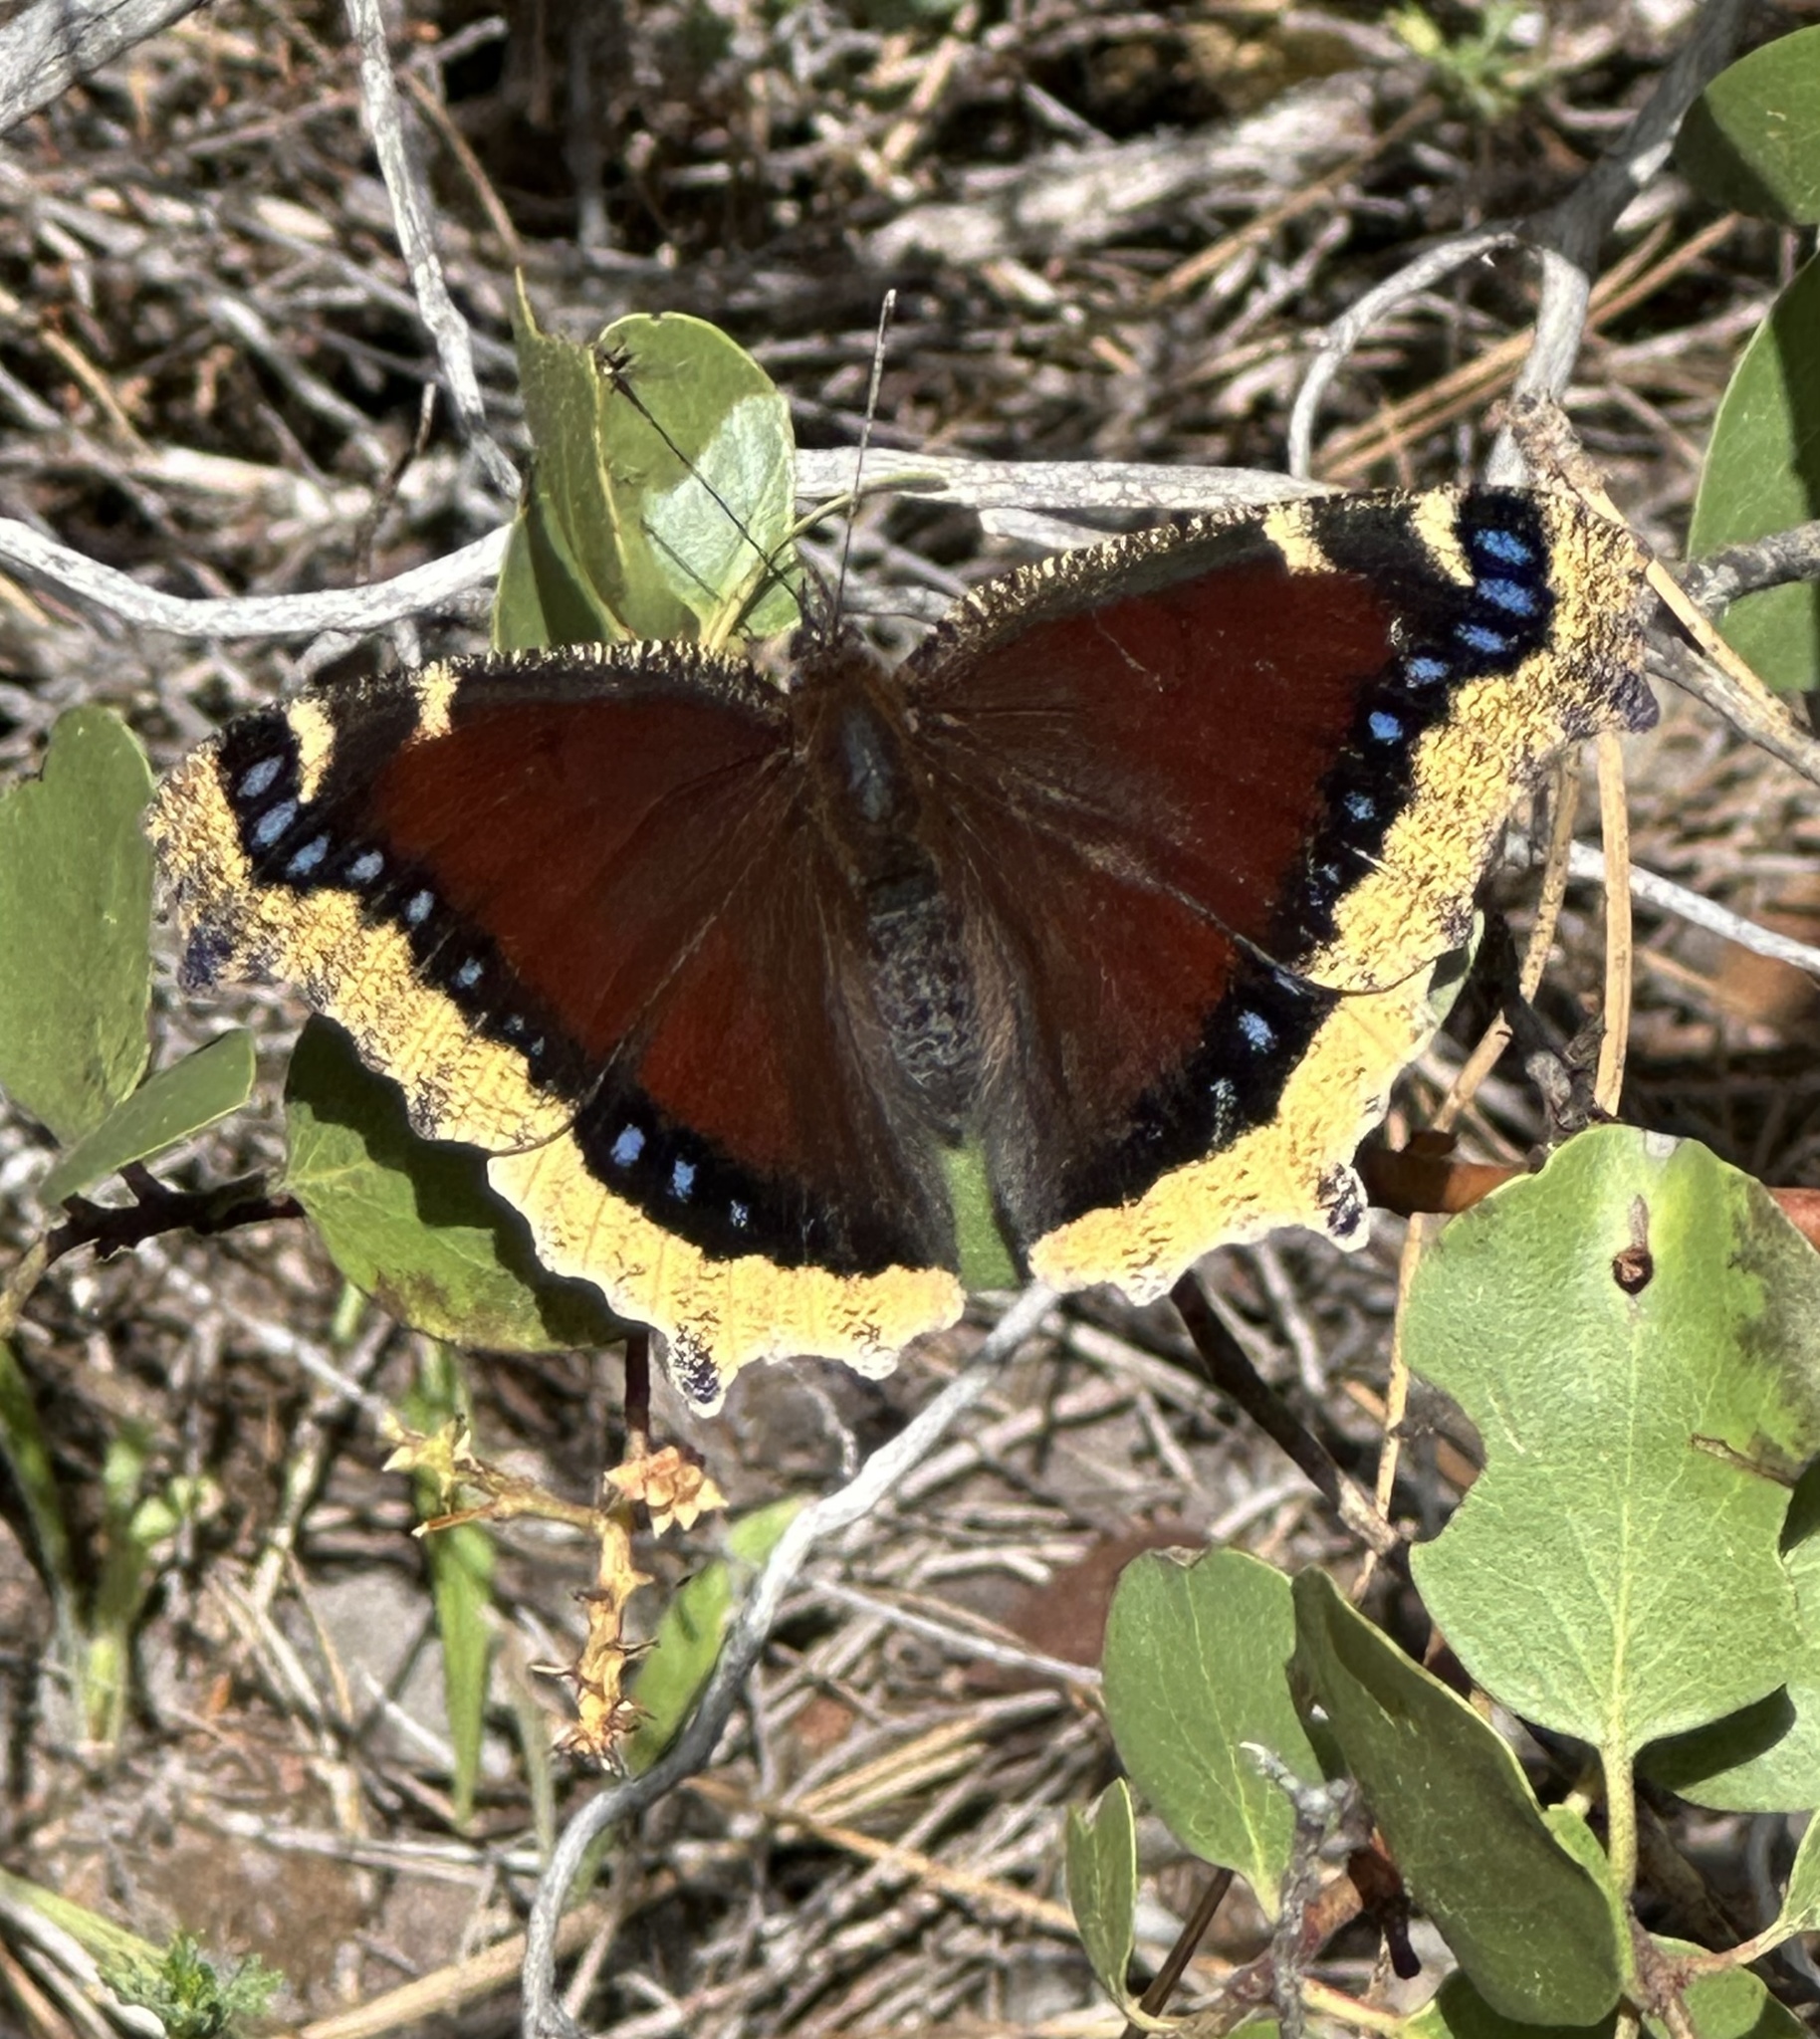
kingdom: Animalia
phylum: Arthropoda
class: Insecta
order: Lepidoptera
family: Nymphalidae
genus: Nymphalis
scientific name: Nymphalis antiopa
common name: Camberwell beauty
